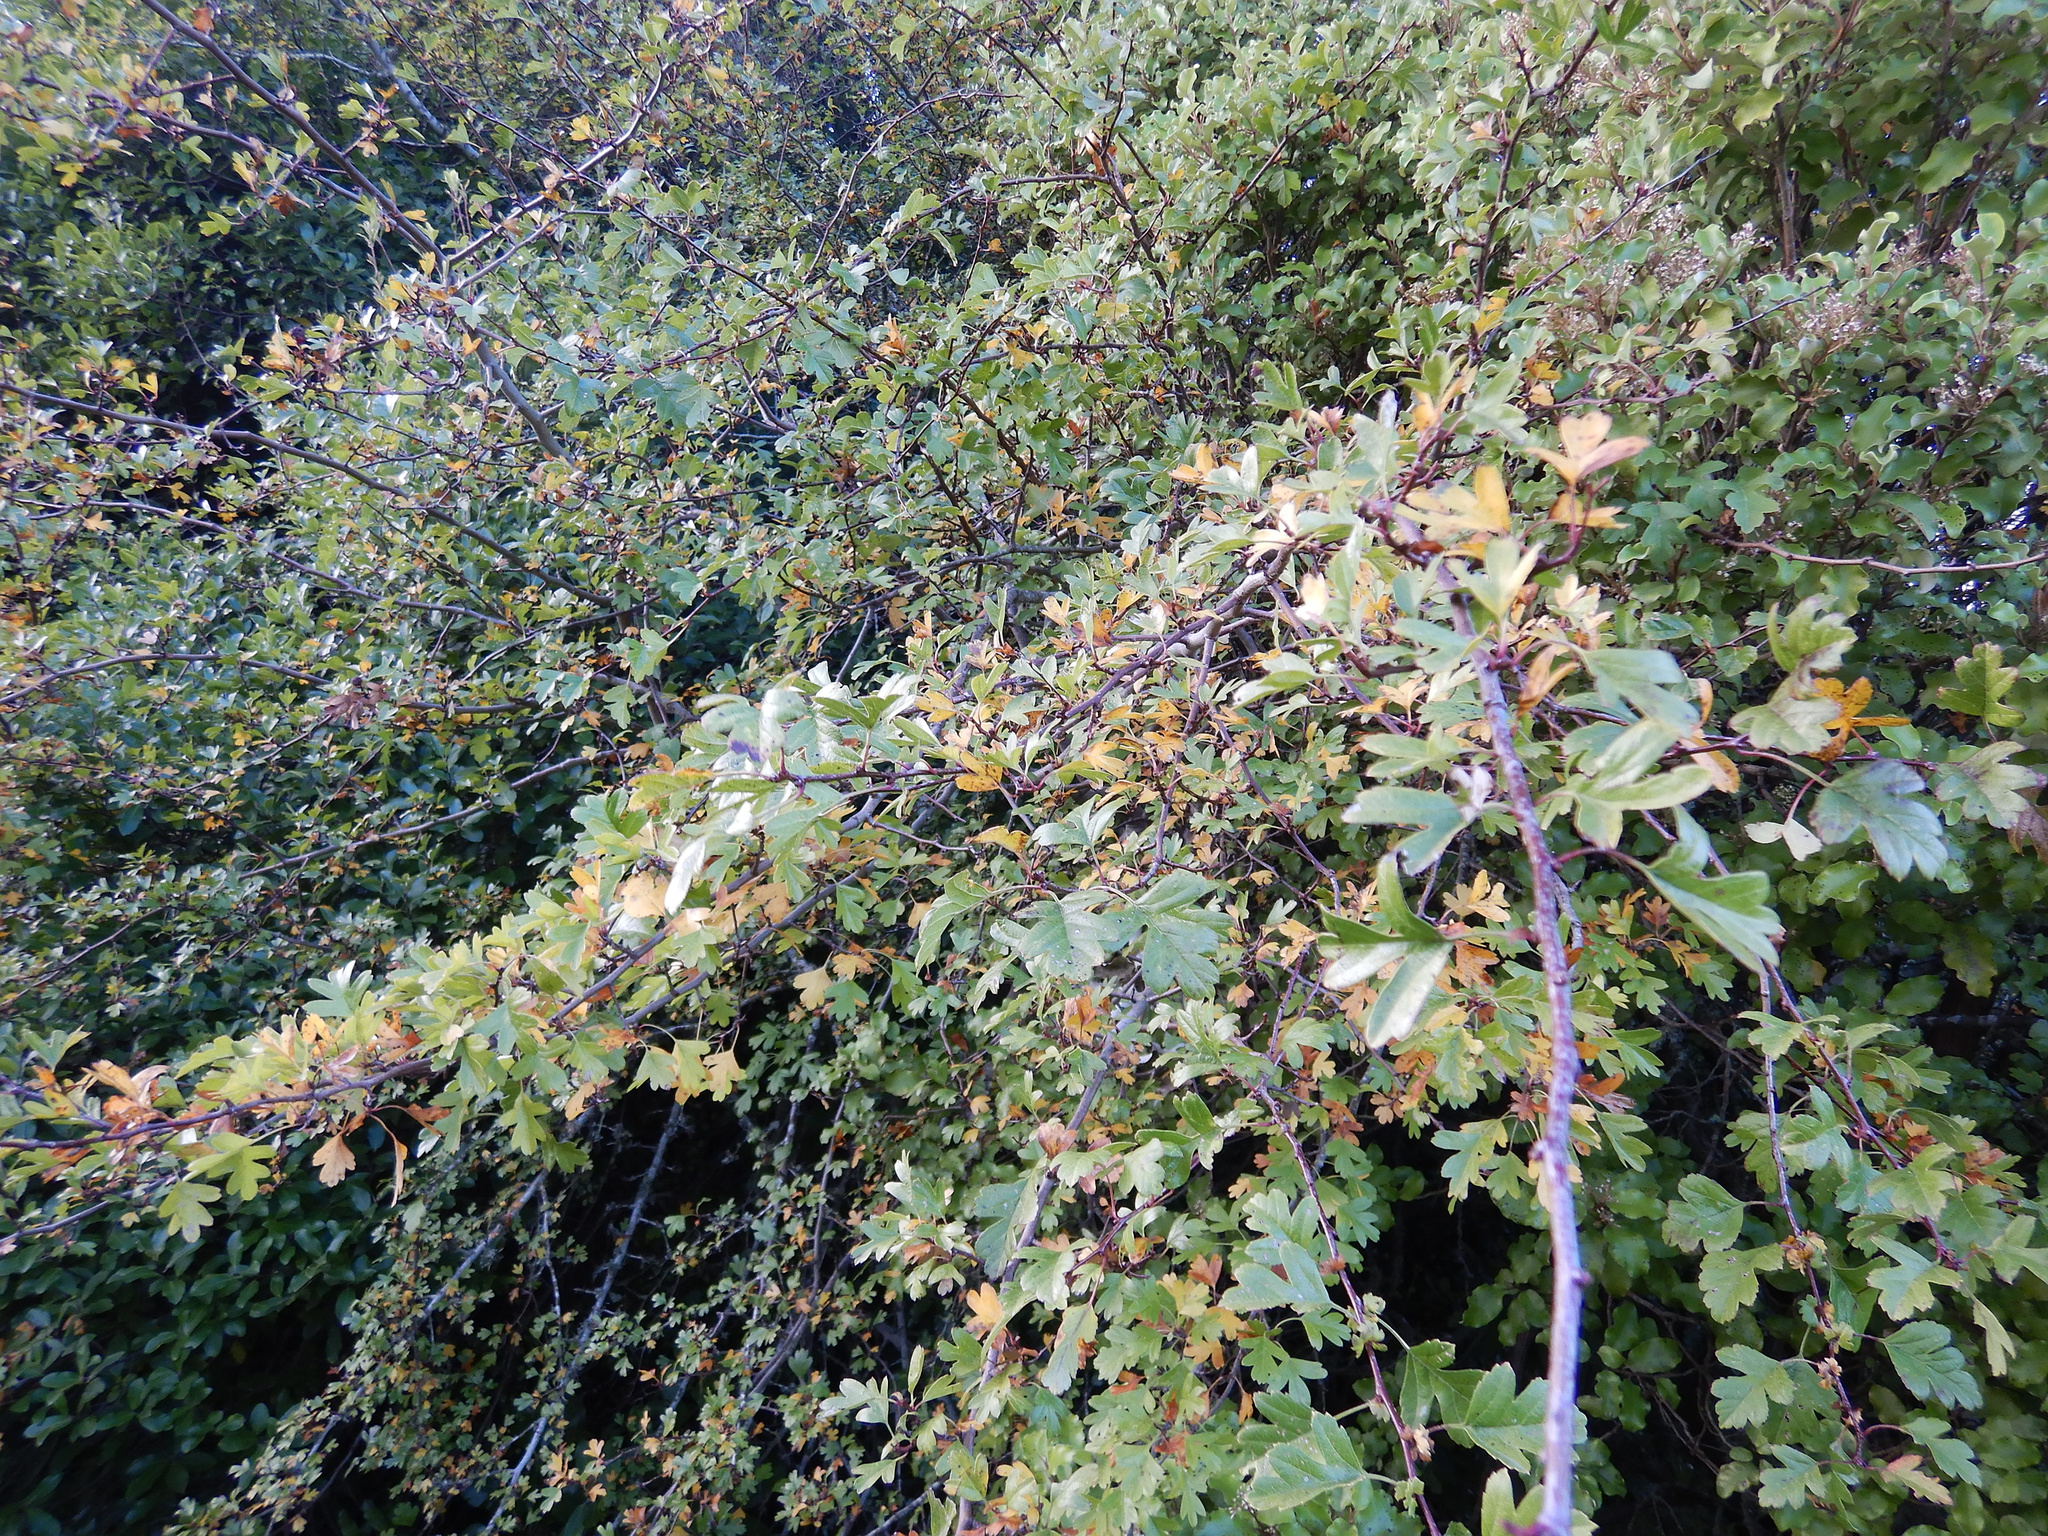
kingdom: Plantae
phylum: Tracheophyta
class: Magnoliopsida
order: Rosales
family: Rosaceae
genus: Crataegus
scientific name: Crataegus monogyna
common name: Hawthorn
